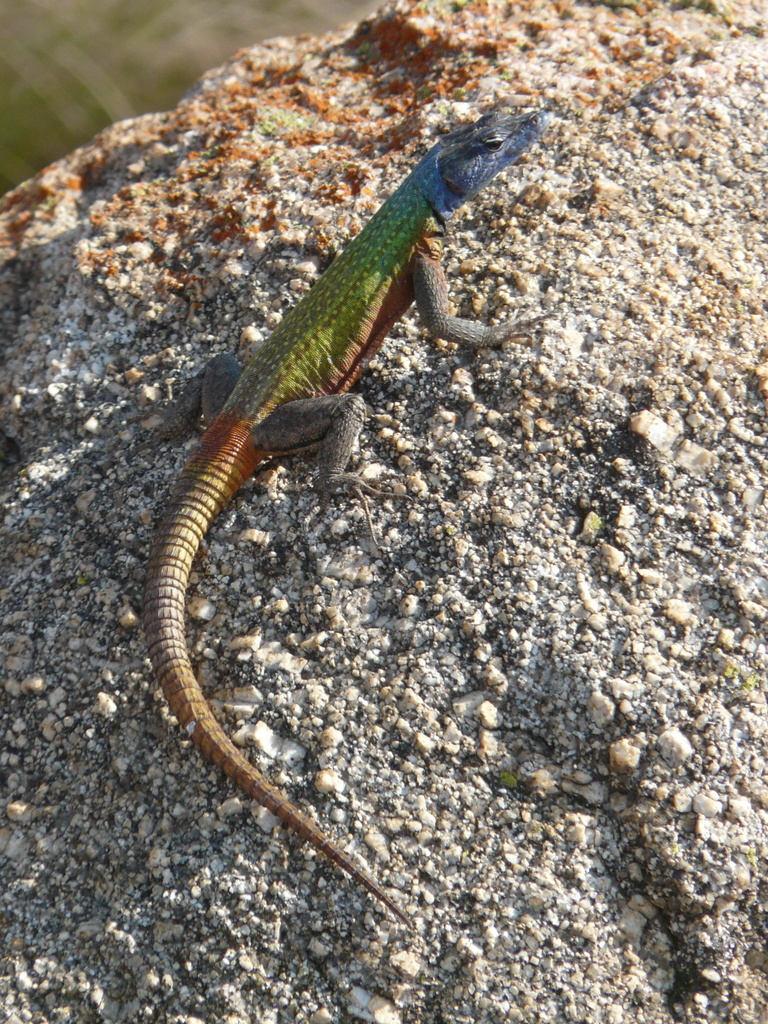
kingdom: Animalia
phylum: Chordata
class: Squamata
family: Cordylidae
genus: Platysaurus
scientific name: Platysaurus intermedius
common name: Common flat lizard
